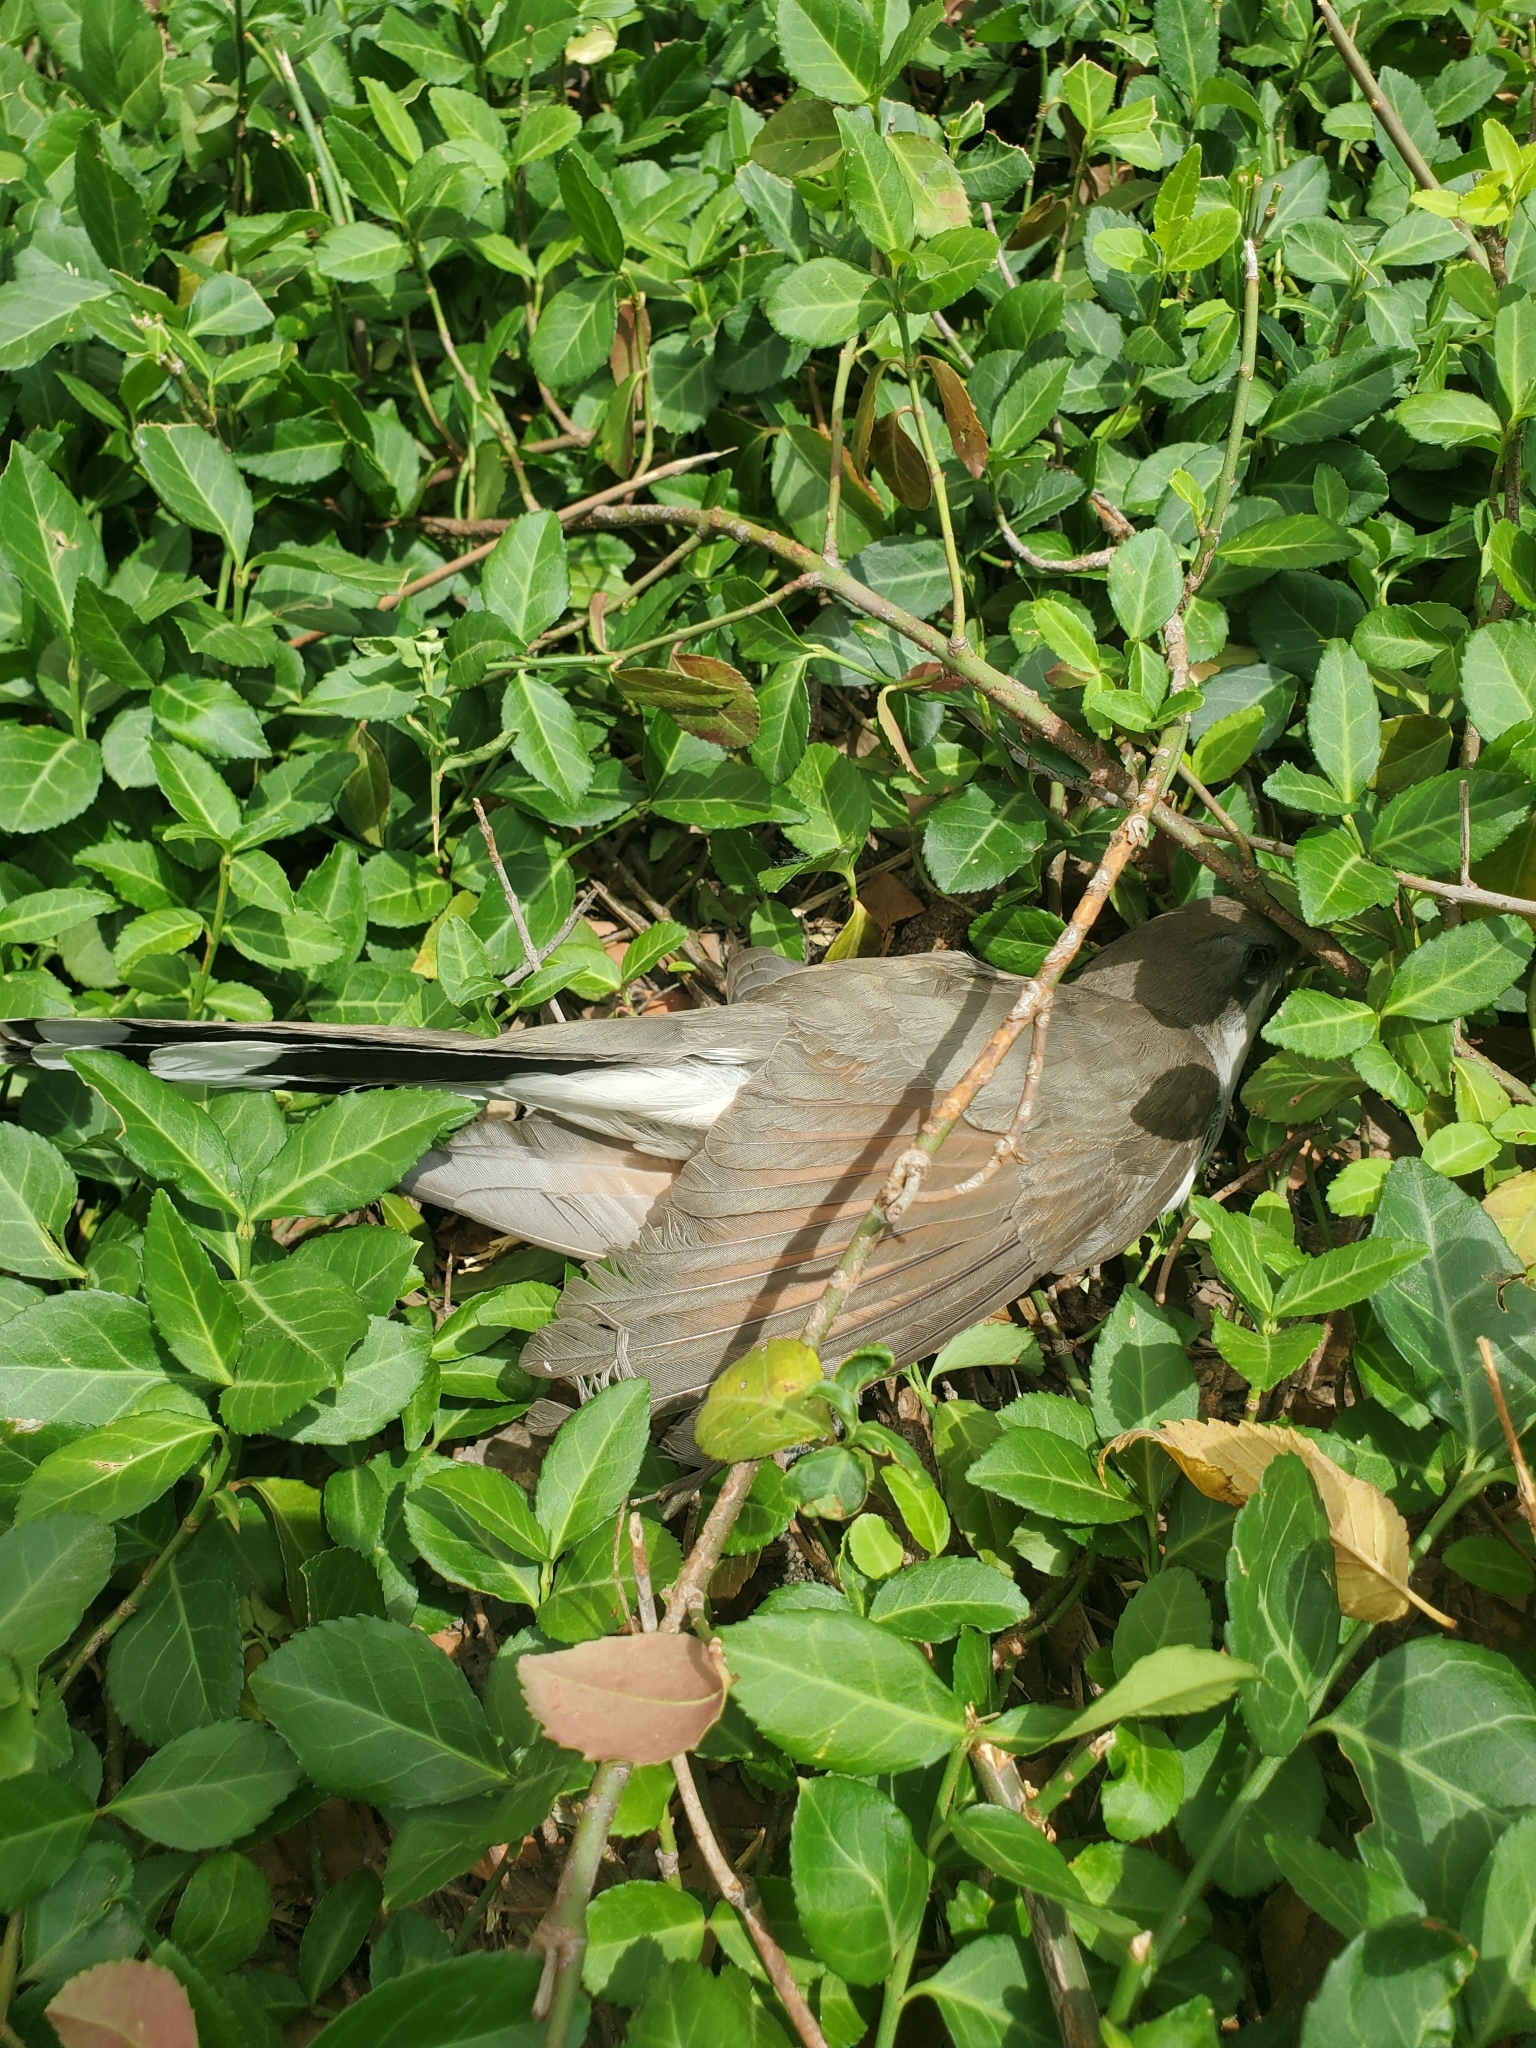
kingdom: Animalia
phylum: Chordata
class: Aves
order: Cuculiformes
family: Cuculidae
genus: Coccyzus
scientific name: Coccyzus americanus
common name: Yellow-billed cuckoo
